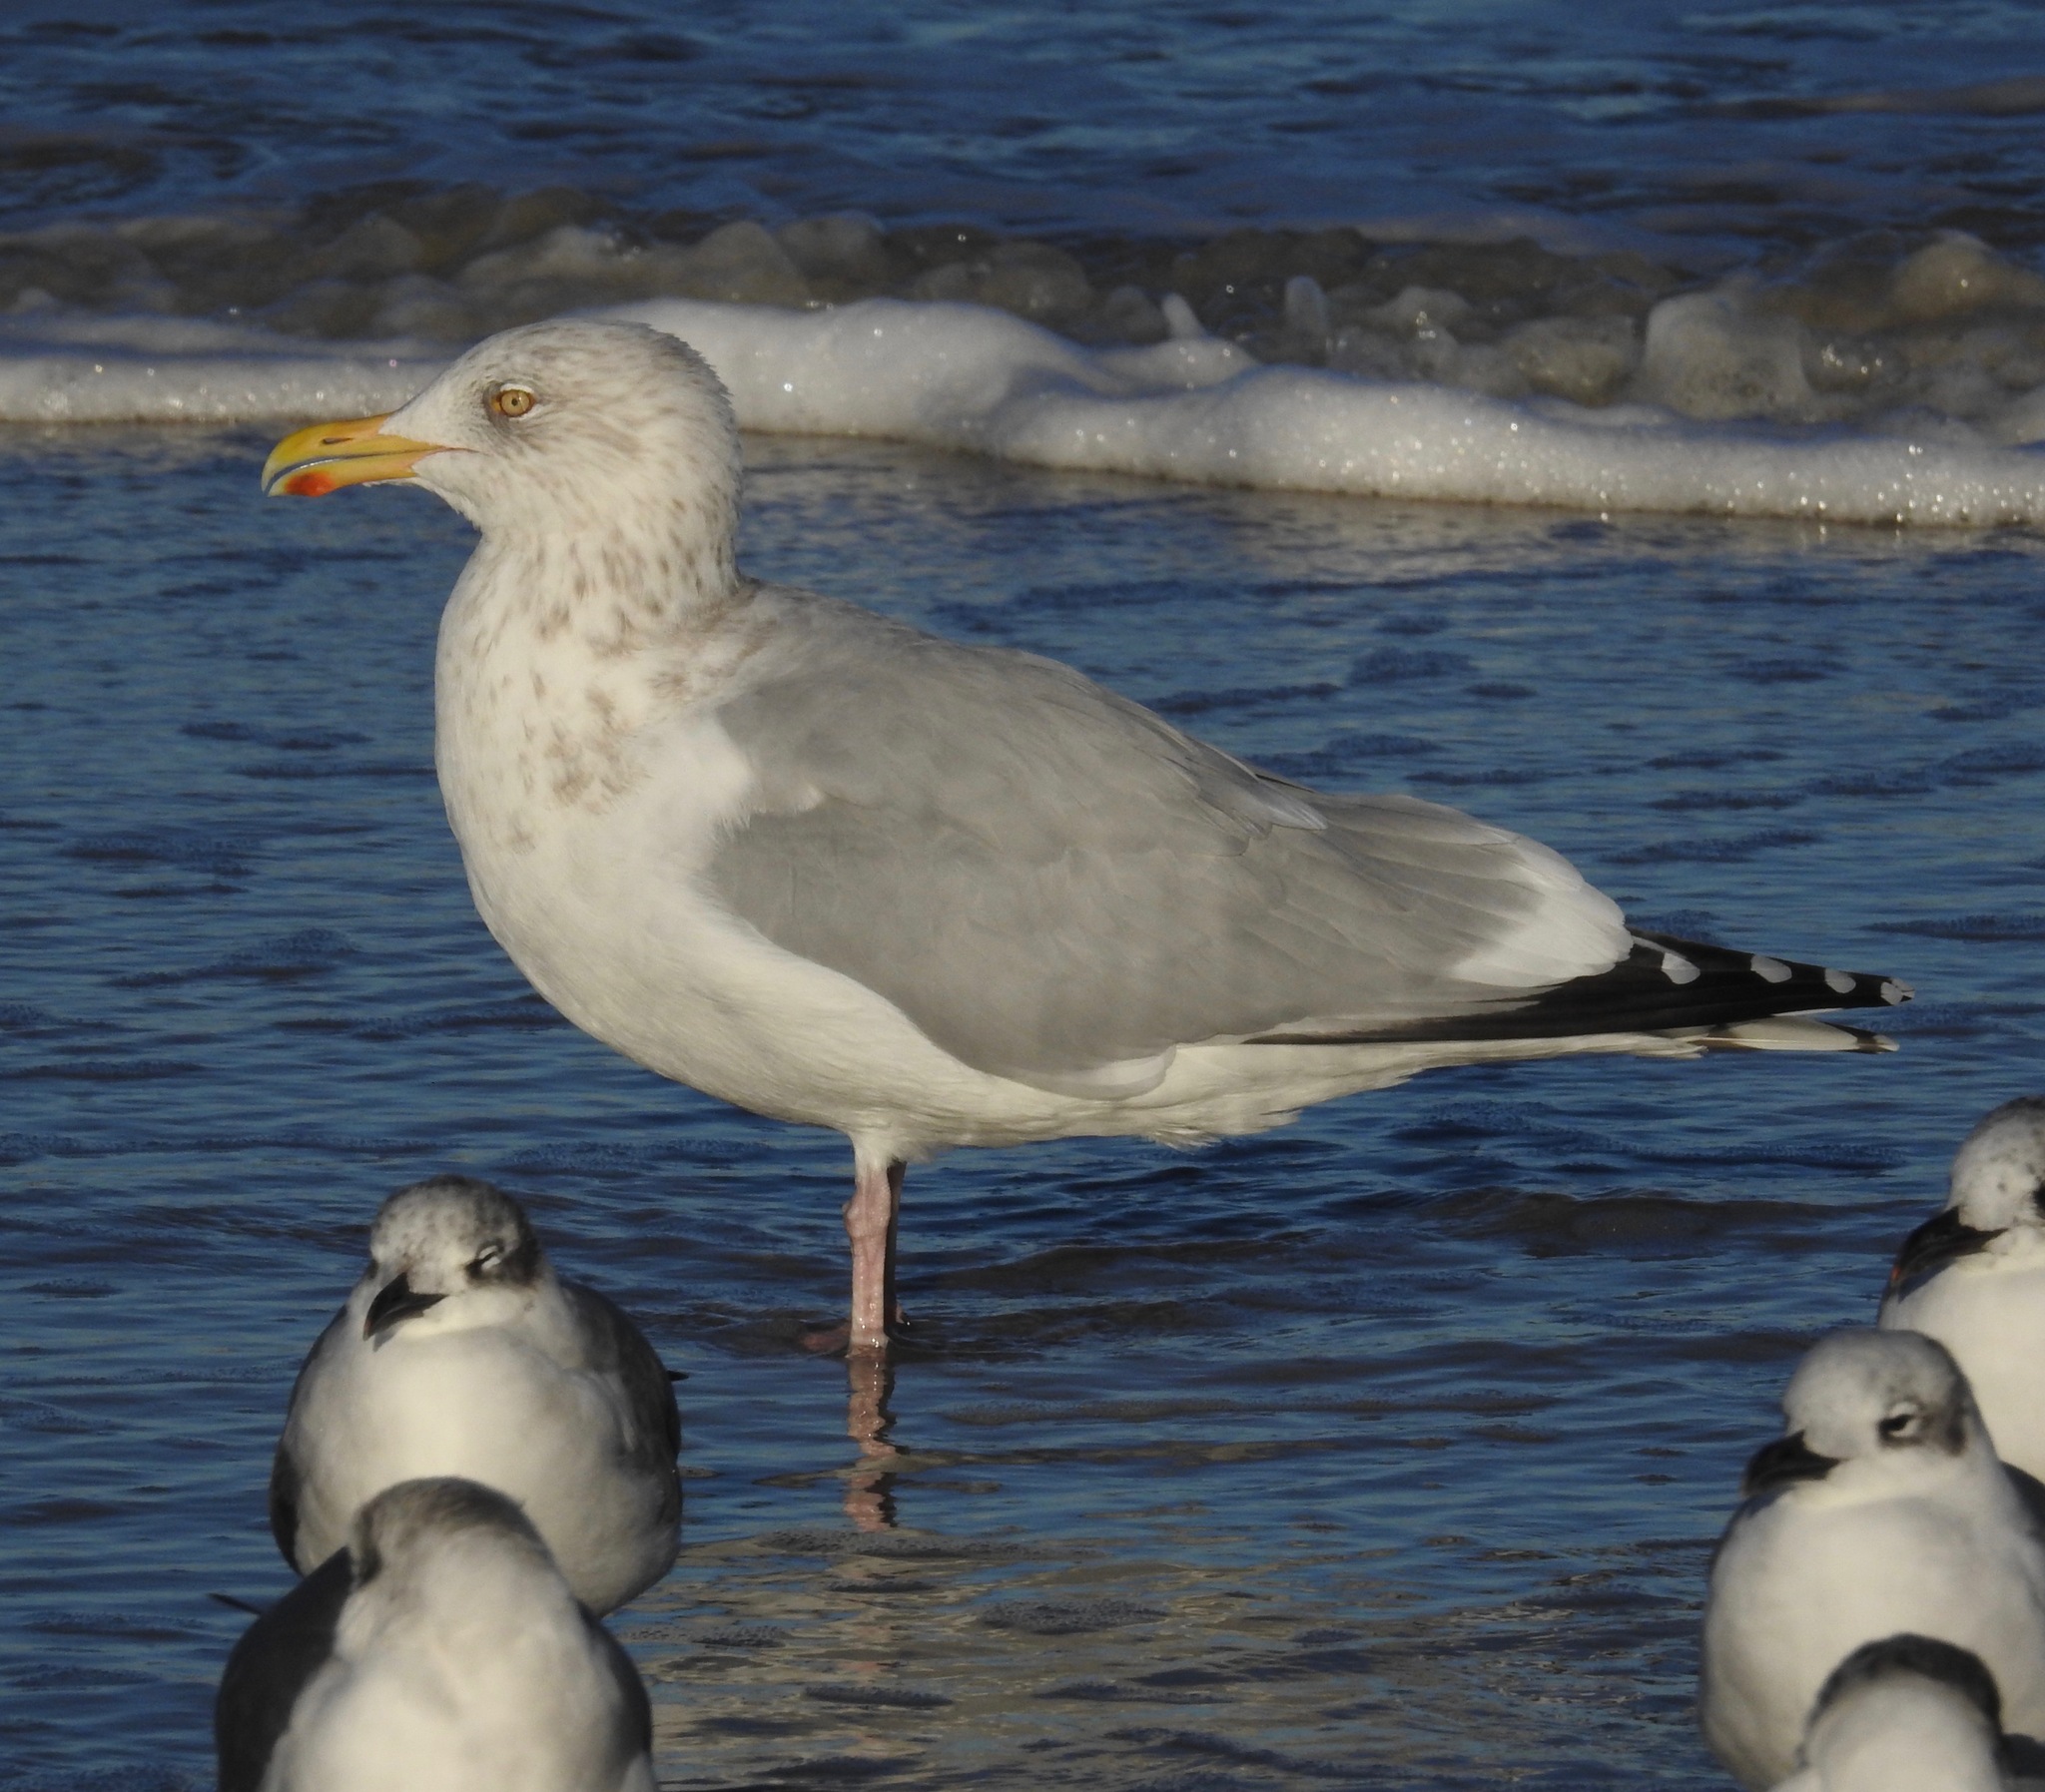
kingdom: Animalia
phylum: Chordata
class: Aves
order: Charadriiformes
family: Laridae
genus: Larus
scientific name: Larus argentatus
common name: Herring gull
